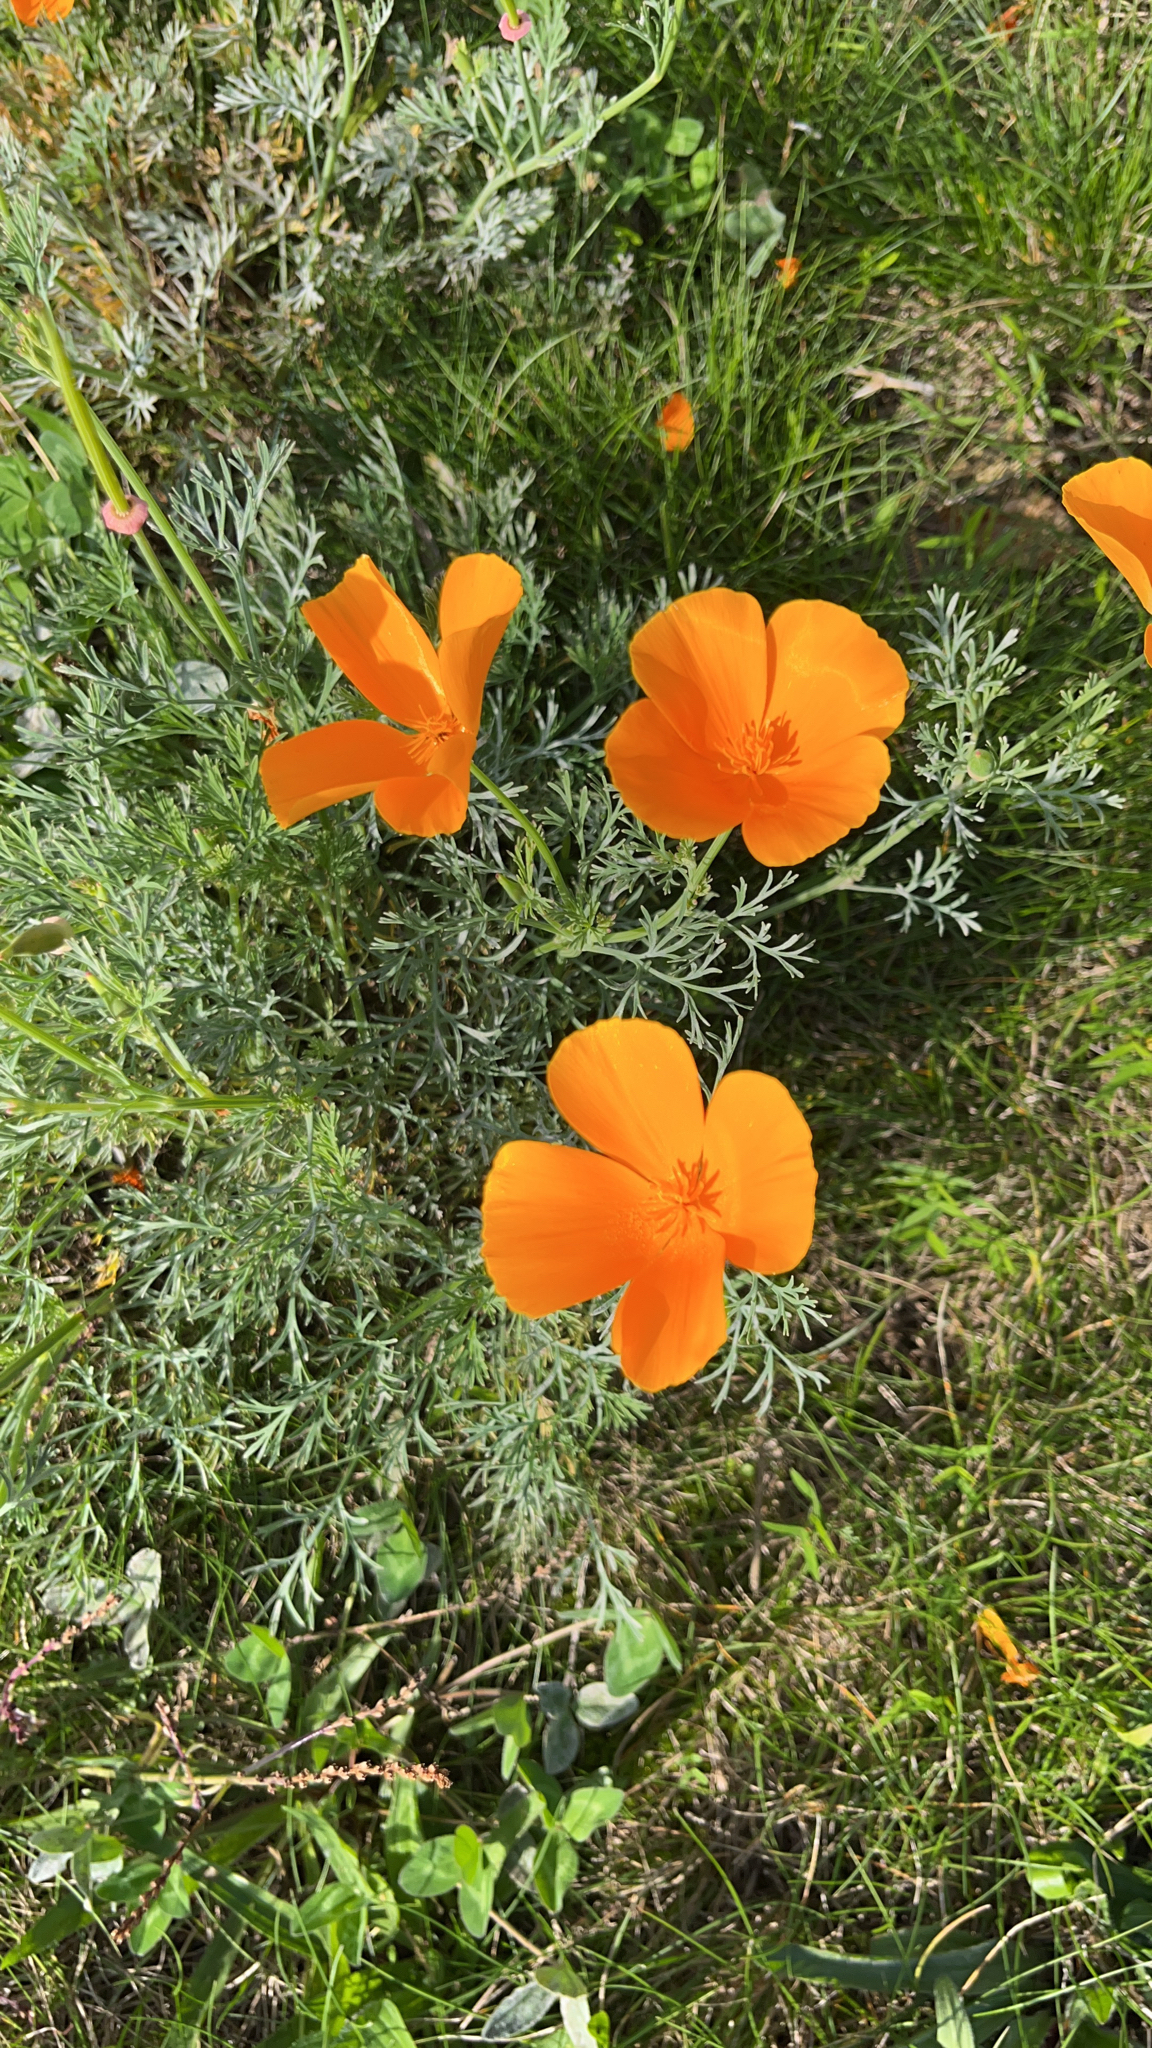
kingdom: Plantae
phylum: Tracheophyta
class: Magnoliopsida
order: Ranunculales
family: Papaveraceae
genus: Eschscholzia
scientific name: Eschscholzia californica
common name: California poppy
